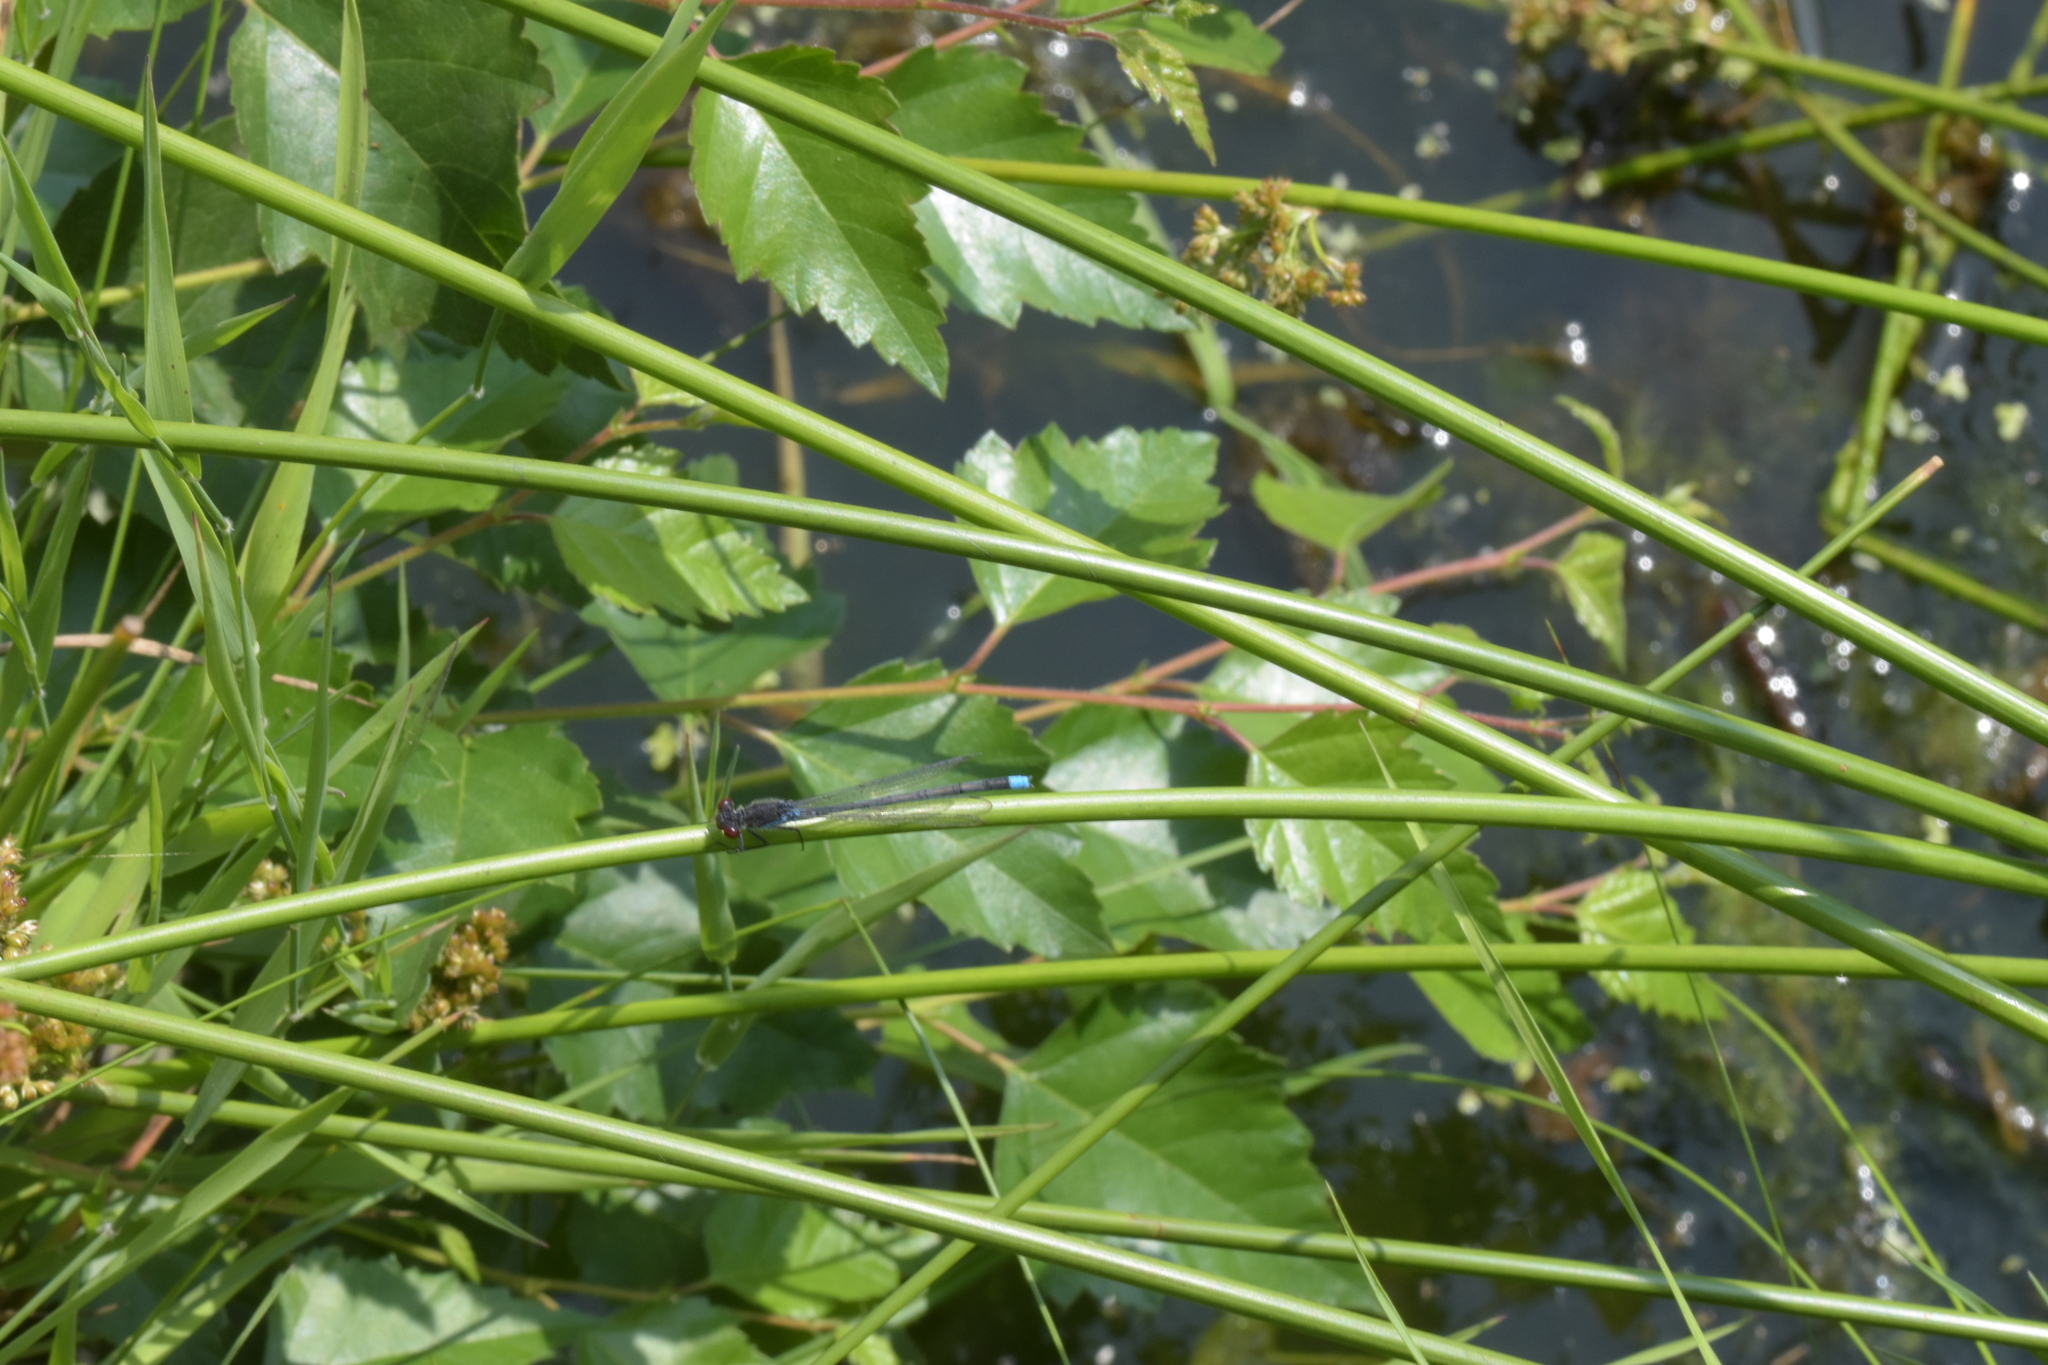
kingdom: Animalia
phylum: Arthropoda
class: Insecta
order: Odonata
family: Coenagrionidae
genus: Erythromma
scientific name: Erythromma najas
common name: Red-eyed damselfly
